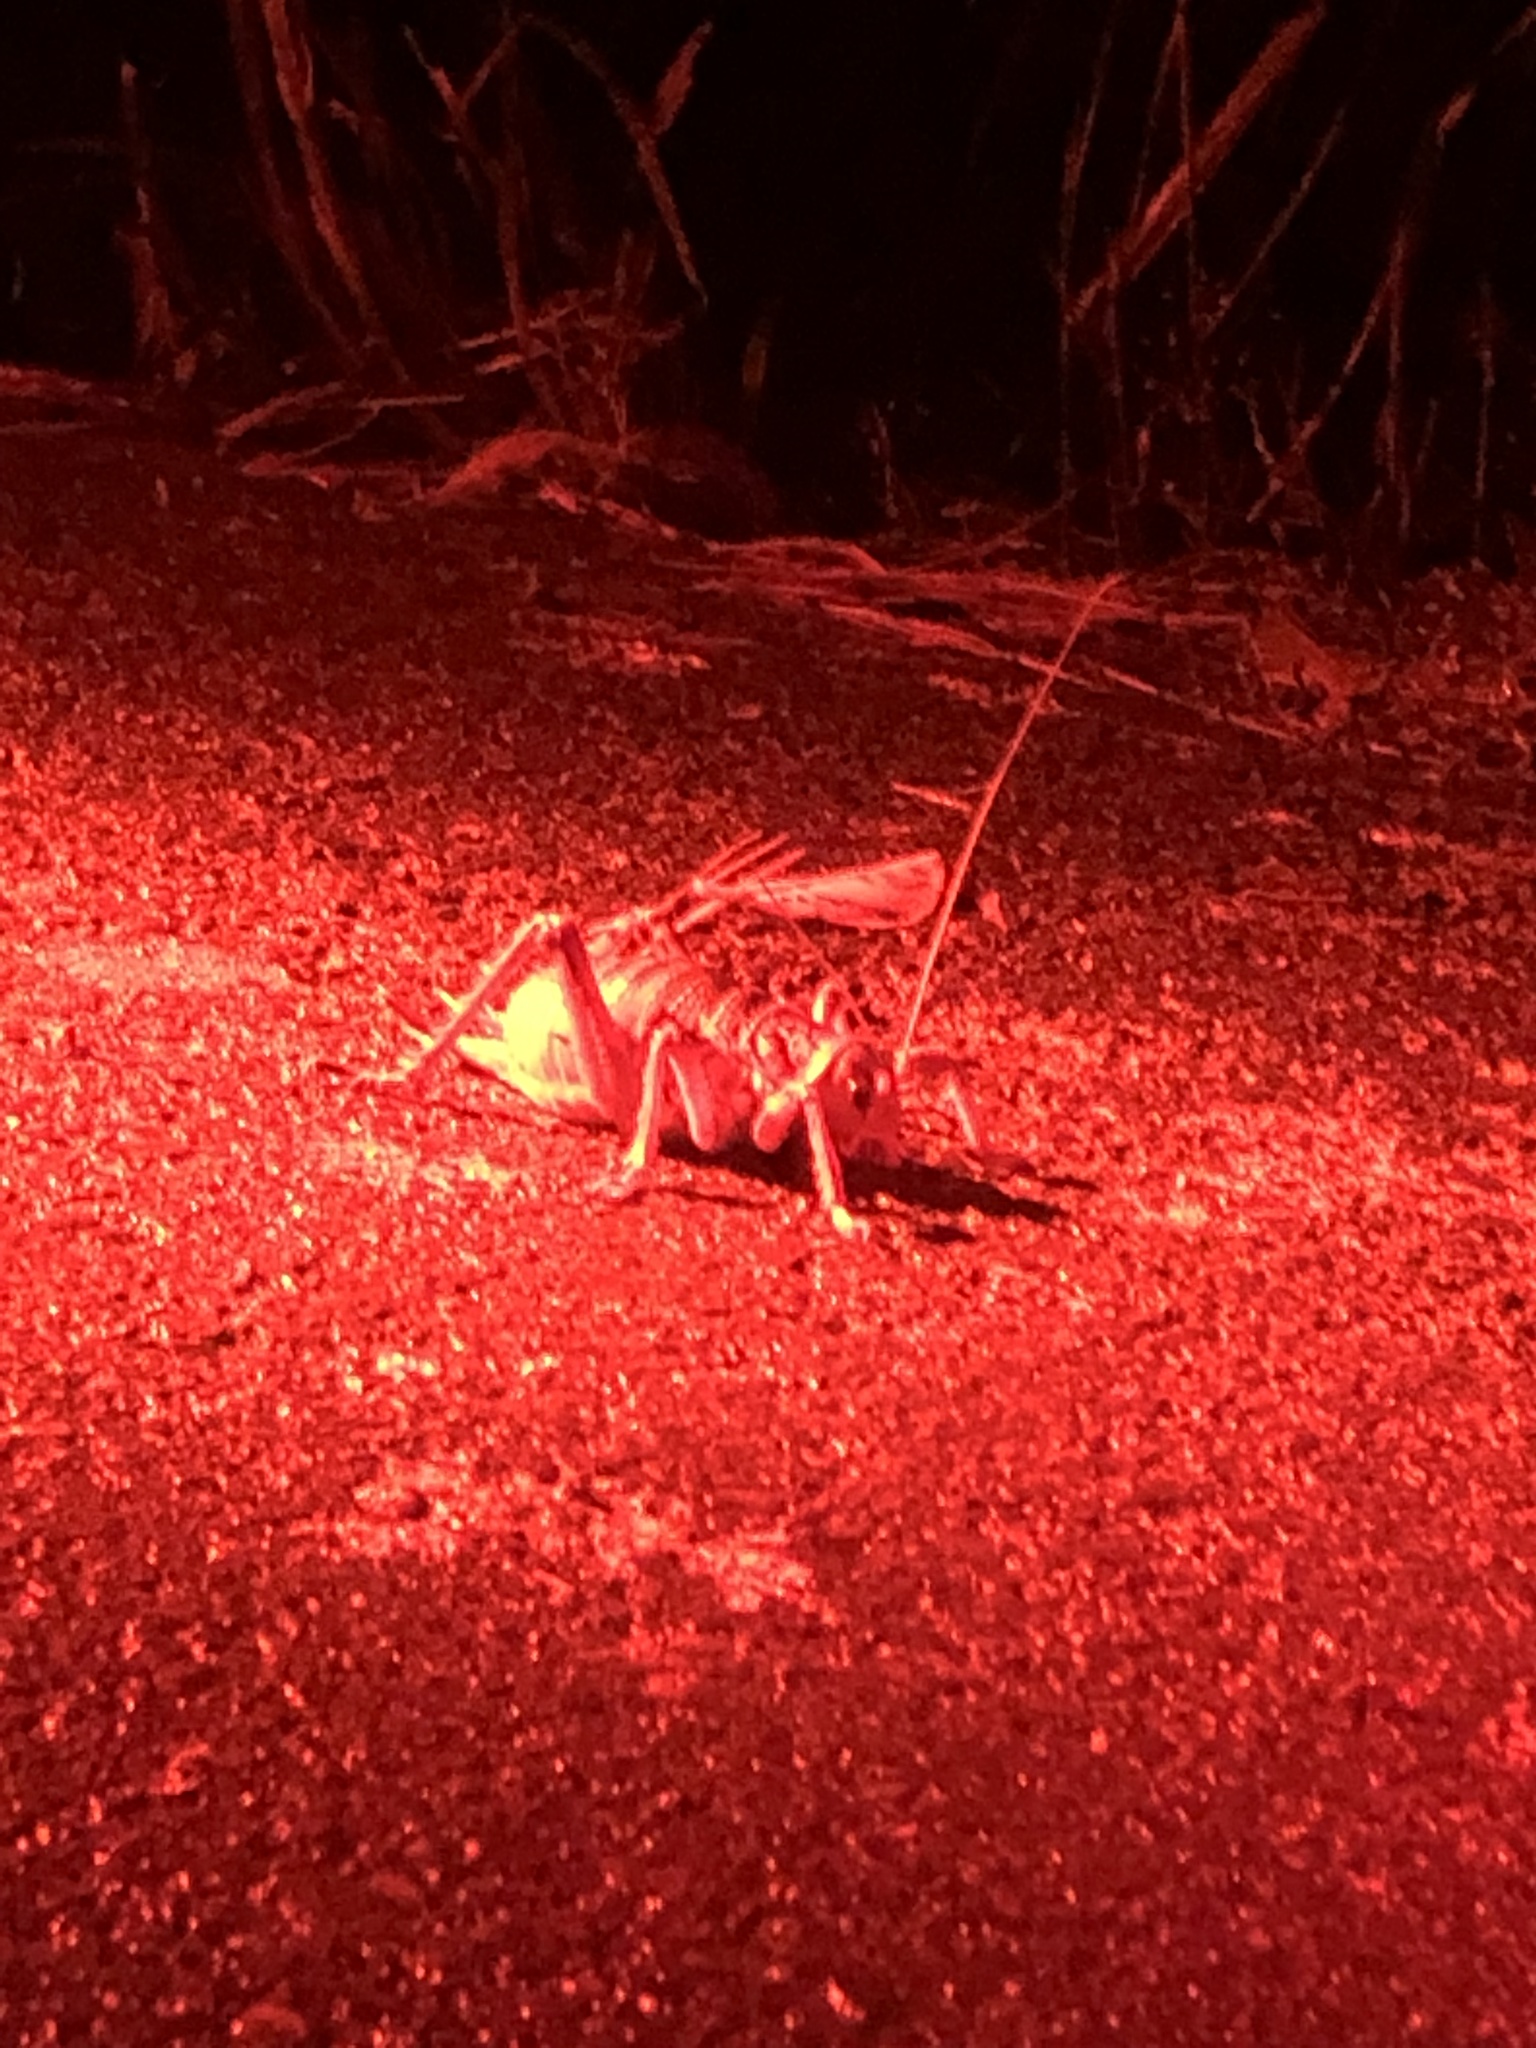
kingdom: Animalia
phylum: Arthropoda
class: Insecta
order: Orthoptera
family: Anostostomatidae
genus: Deinacrida
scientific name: Deinacrida rugosa
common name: Stephens island weta
